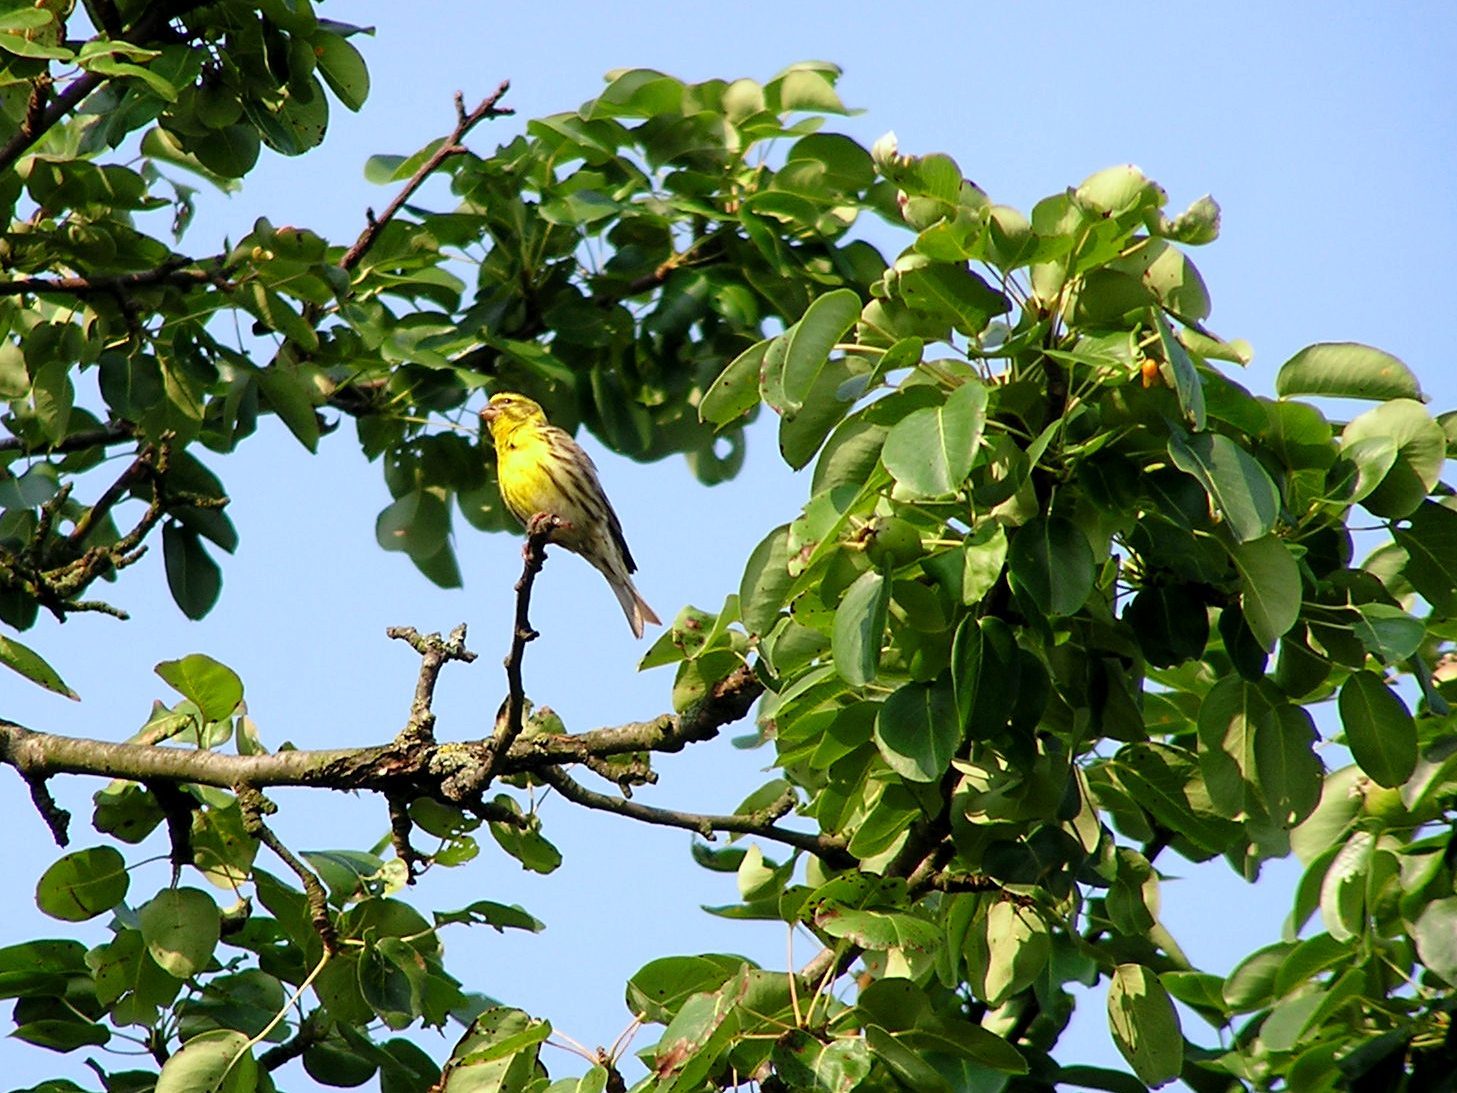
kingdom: Animalia
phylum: Chordata
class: Aves
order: Passeriformes
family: Fringillidae
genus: Serinus
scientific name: Serinus serinus
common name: European serin
